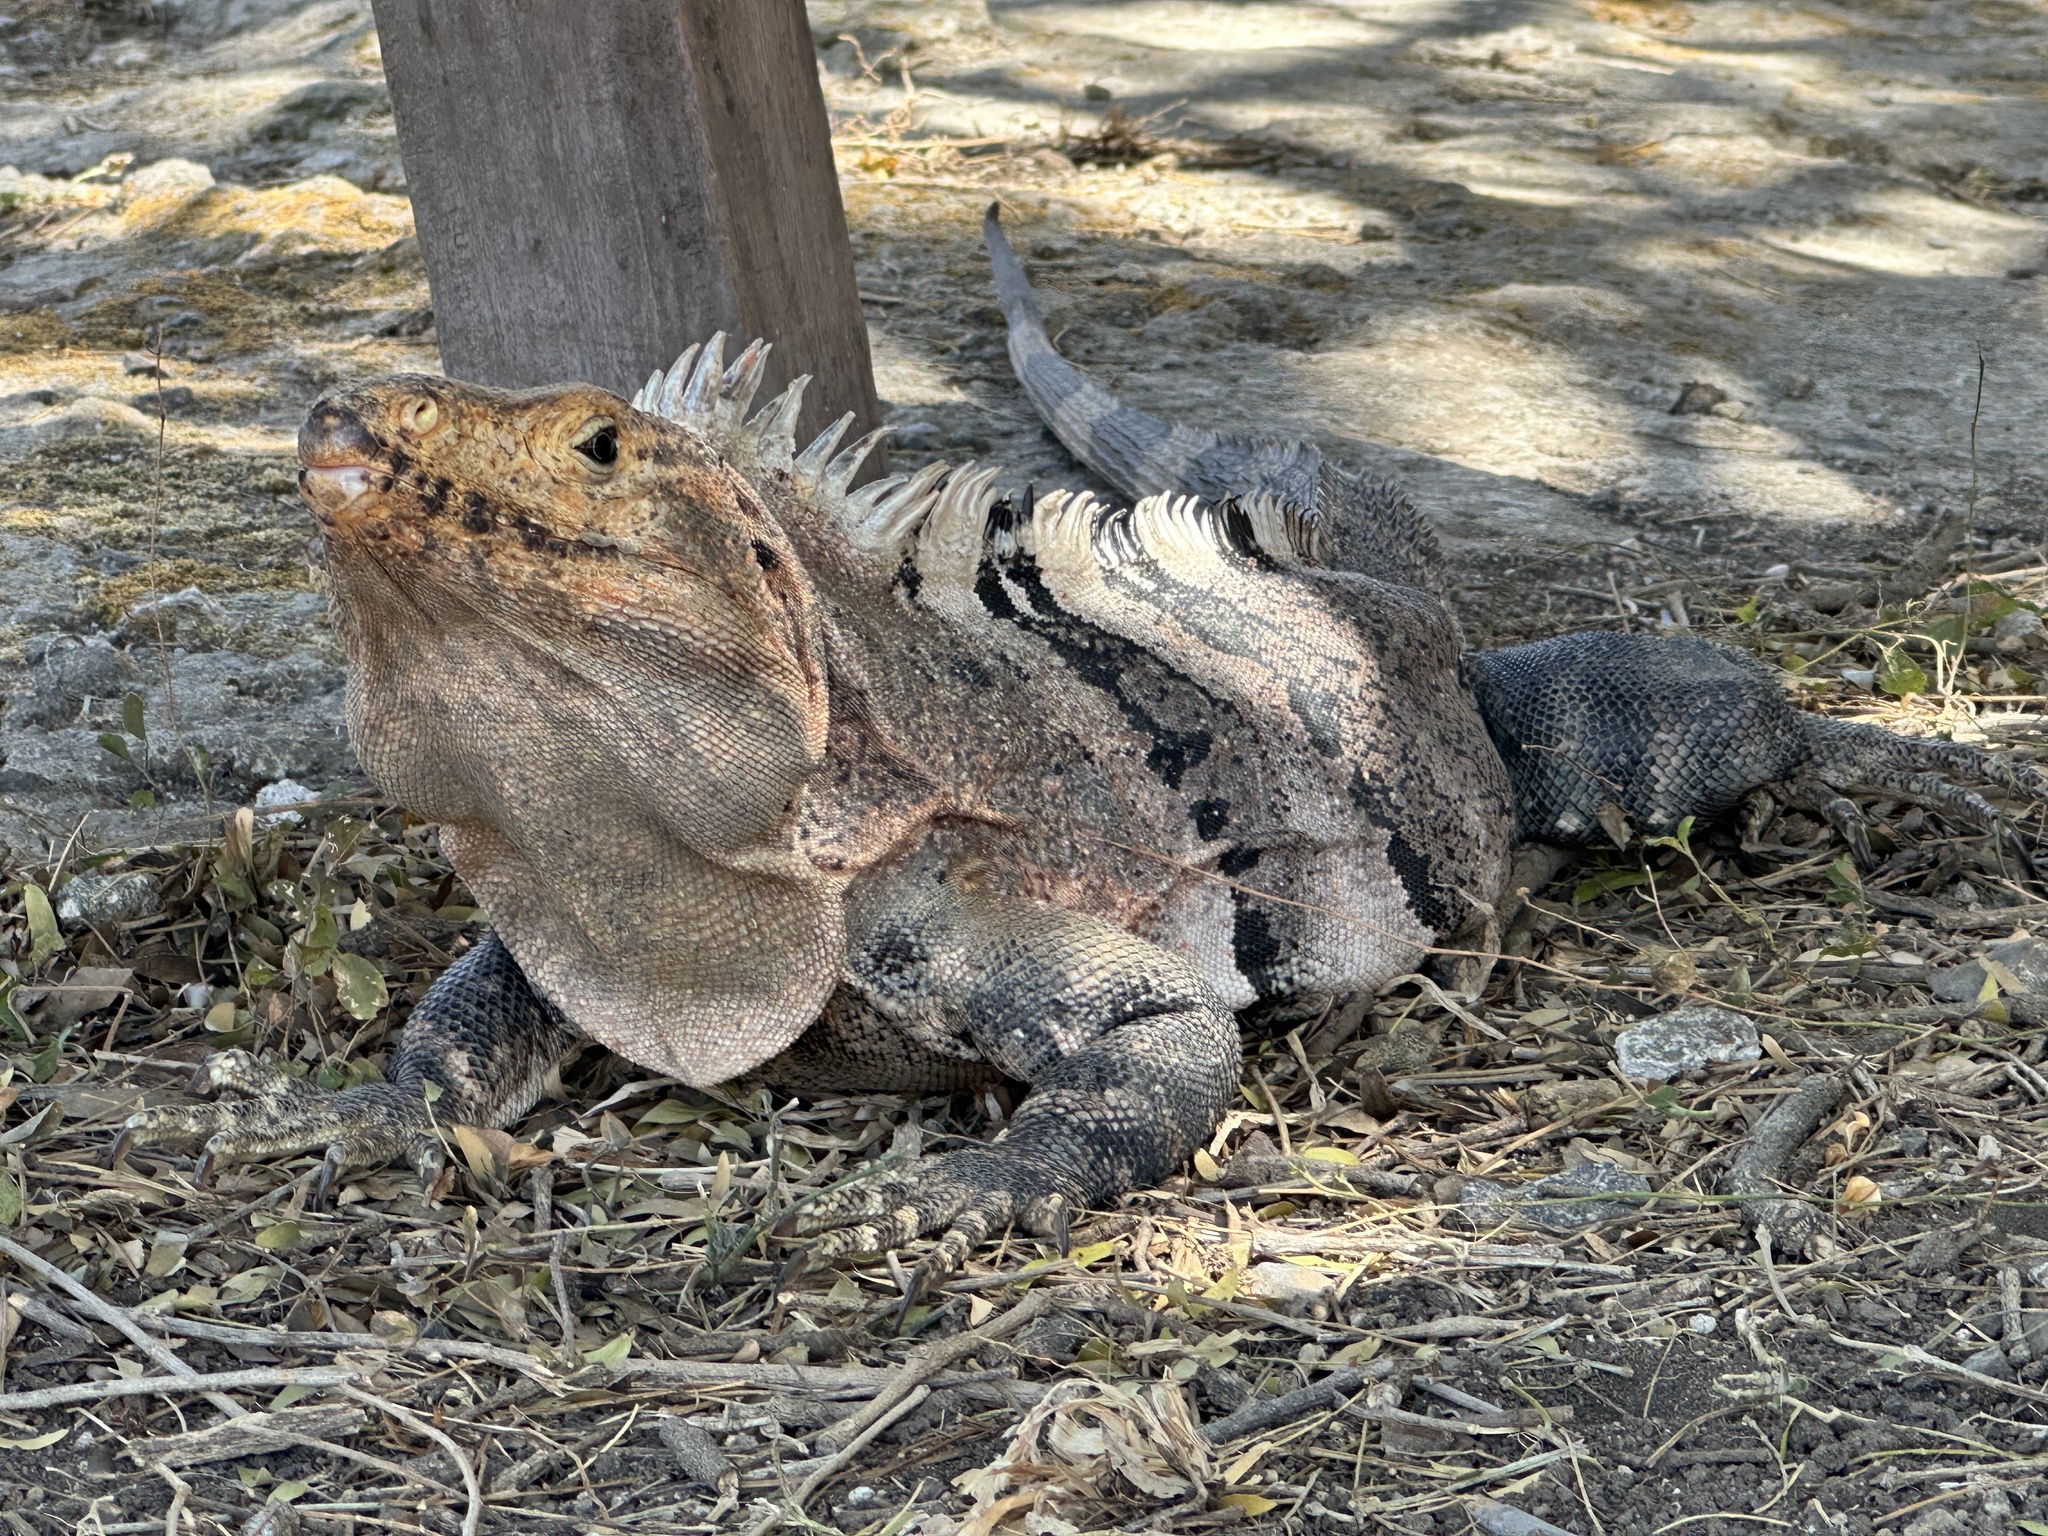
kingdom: Animalia
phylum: Chordata
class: Squamata
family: Iguanidae
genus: Ctenosaura
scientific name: Ctenosaura similis
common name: Black spiny-tailed iguana
